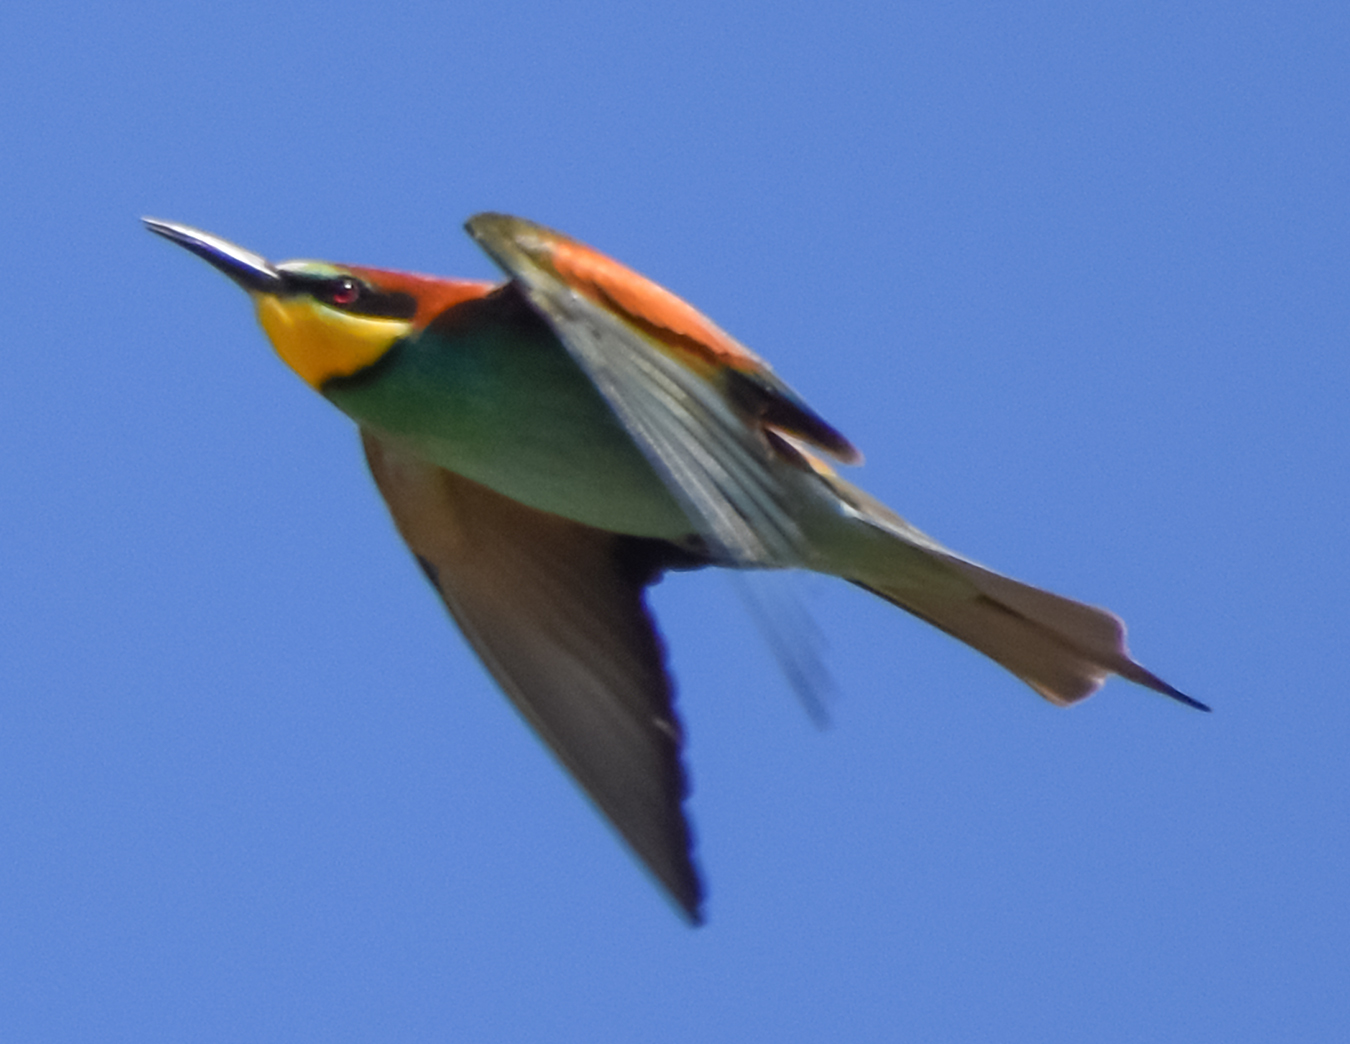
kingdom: Animalia
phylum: Chordata
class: Aves
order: Coraciiformes
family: Meropidae
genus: Merops
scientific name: Merops apiaster
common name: European bee-eater
